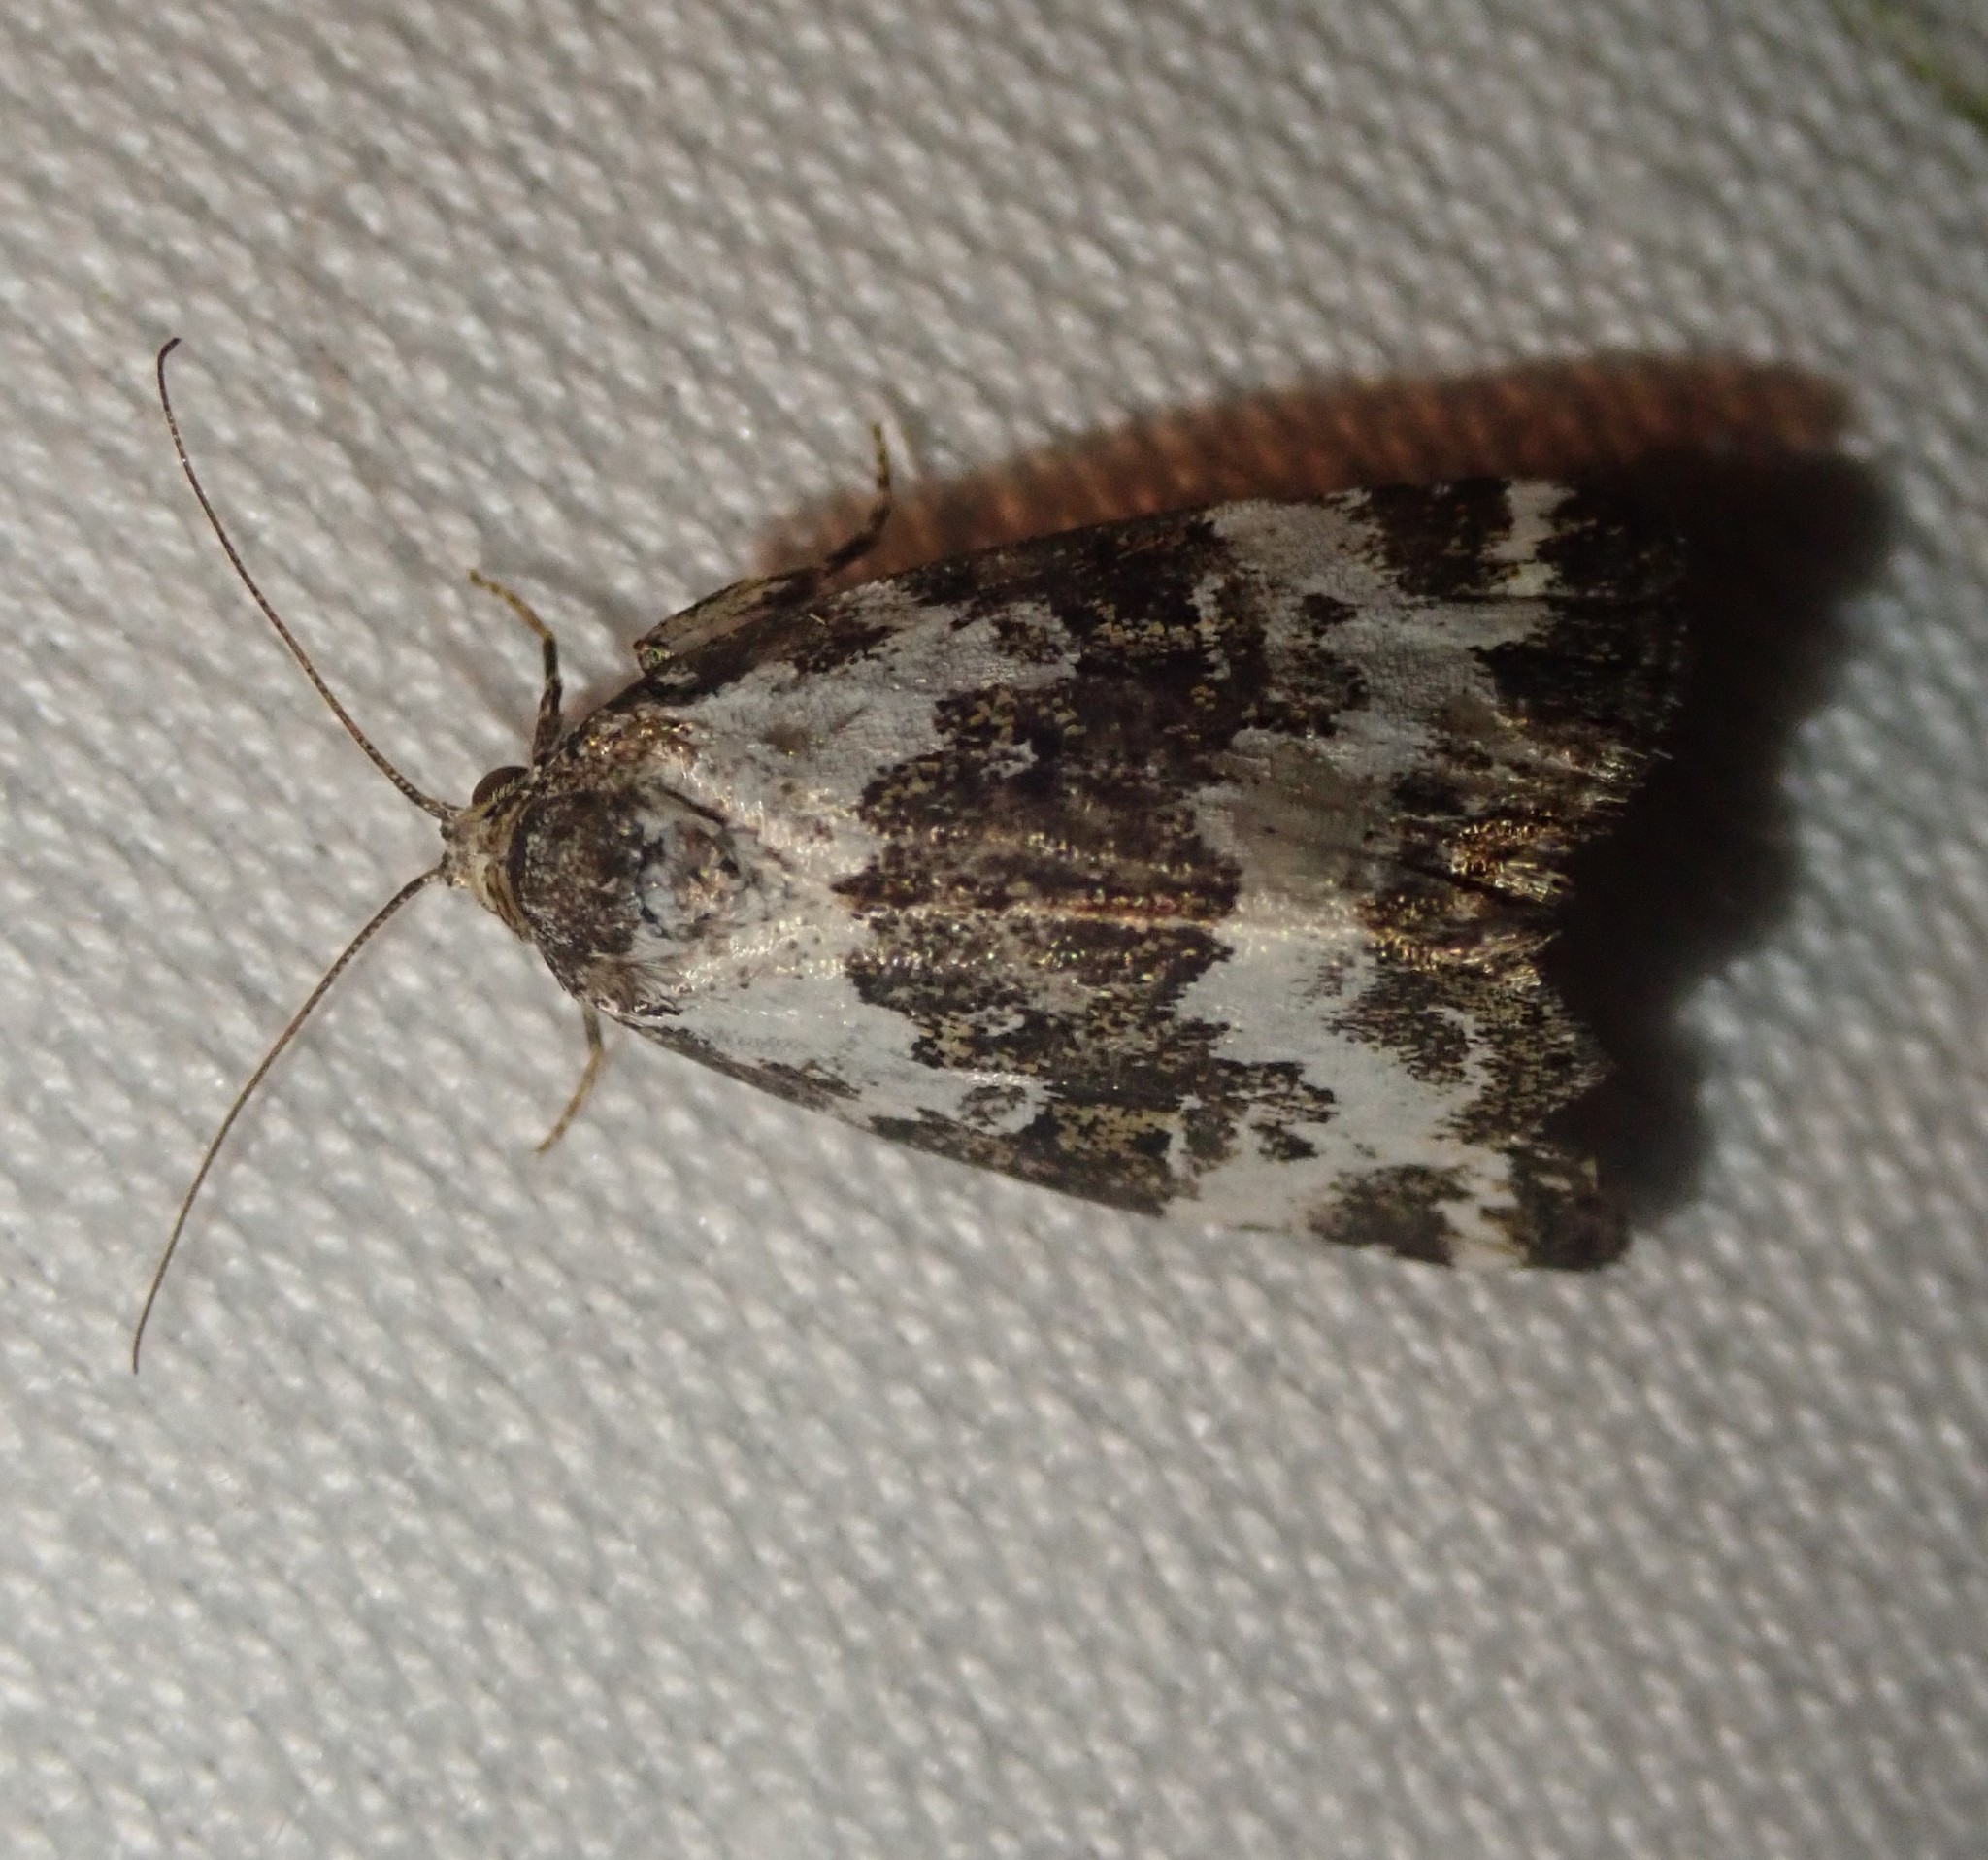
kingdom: Animalia
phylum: Arthropoda
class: Insecta
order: Lepidoptera
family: Noctuidae
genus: Deltote
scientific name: Deltote deceptoria
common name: Pretty marbled
